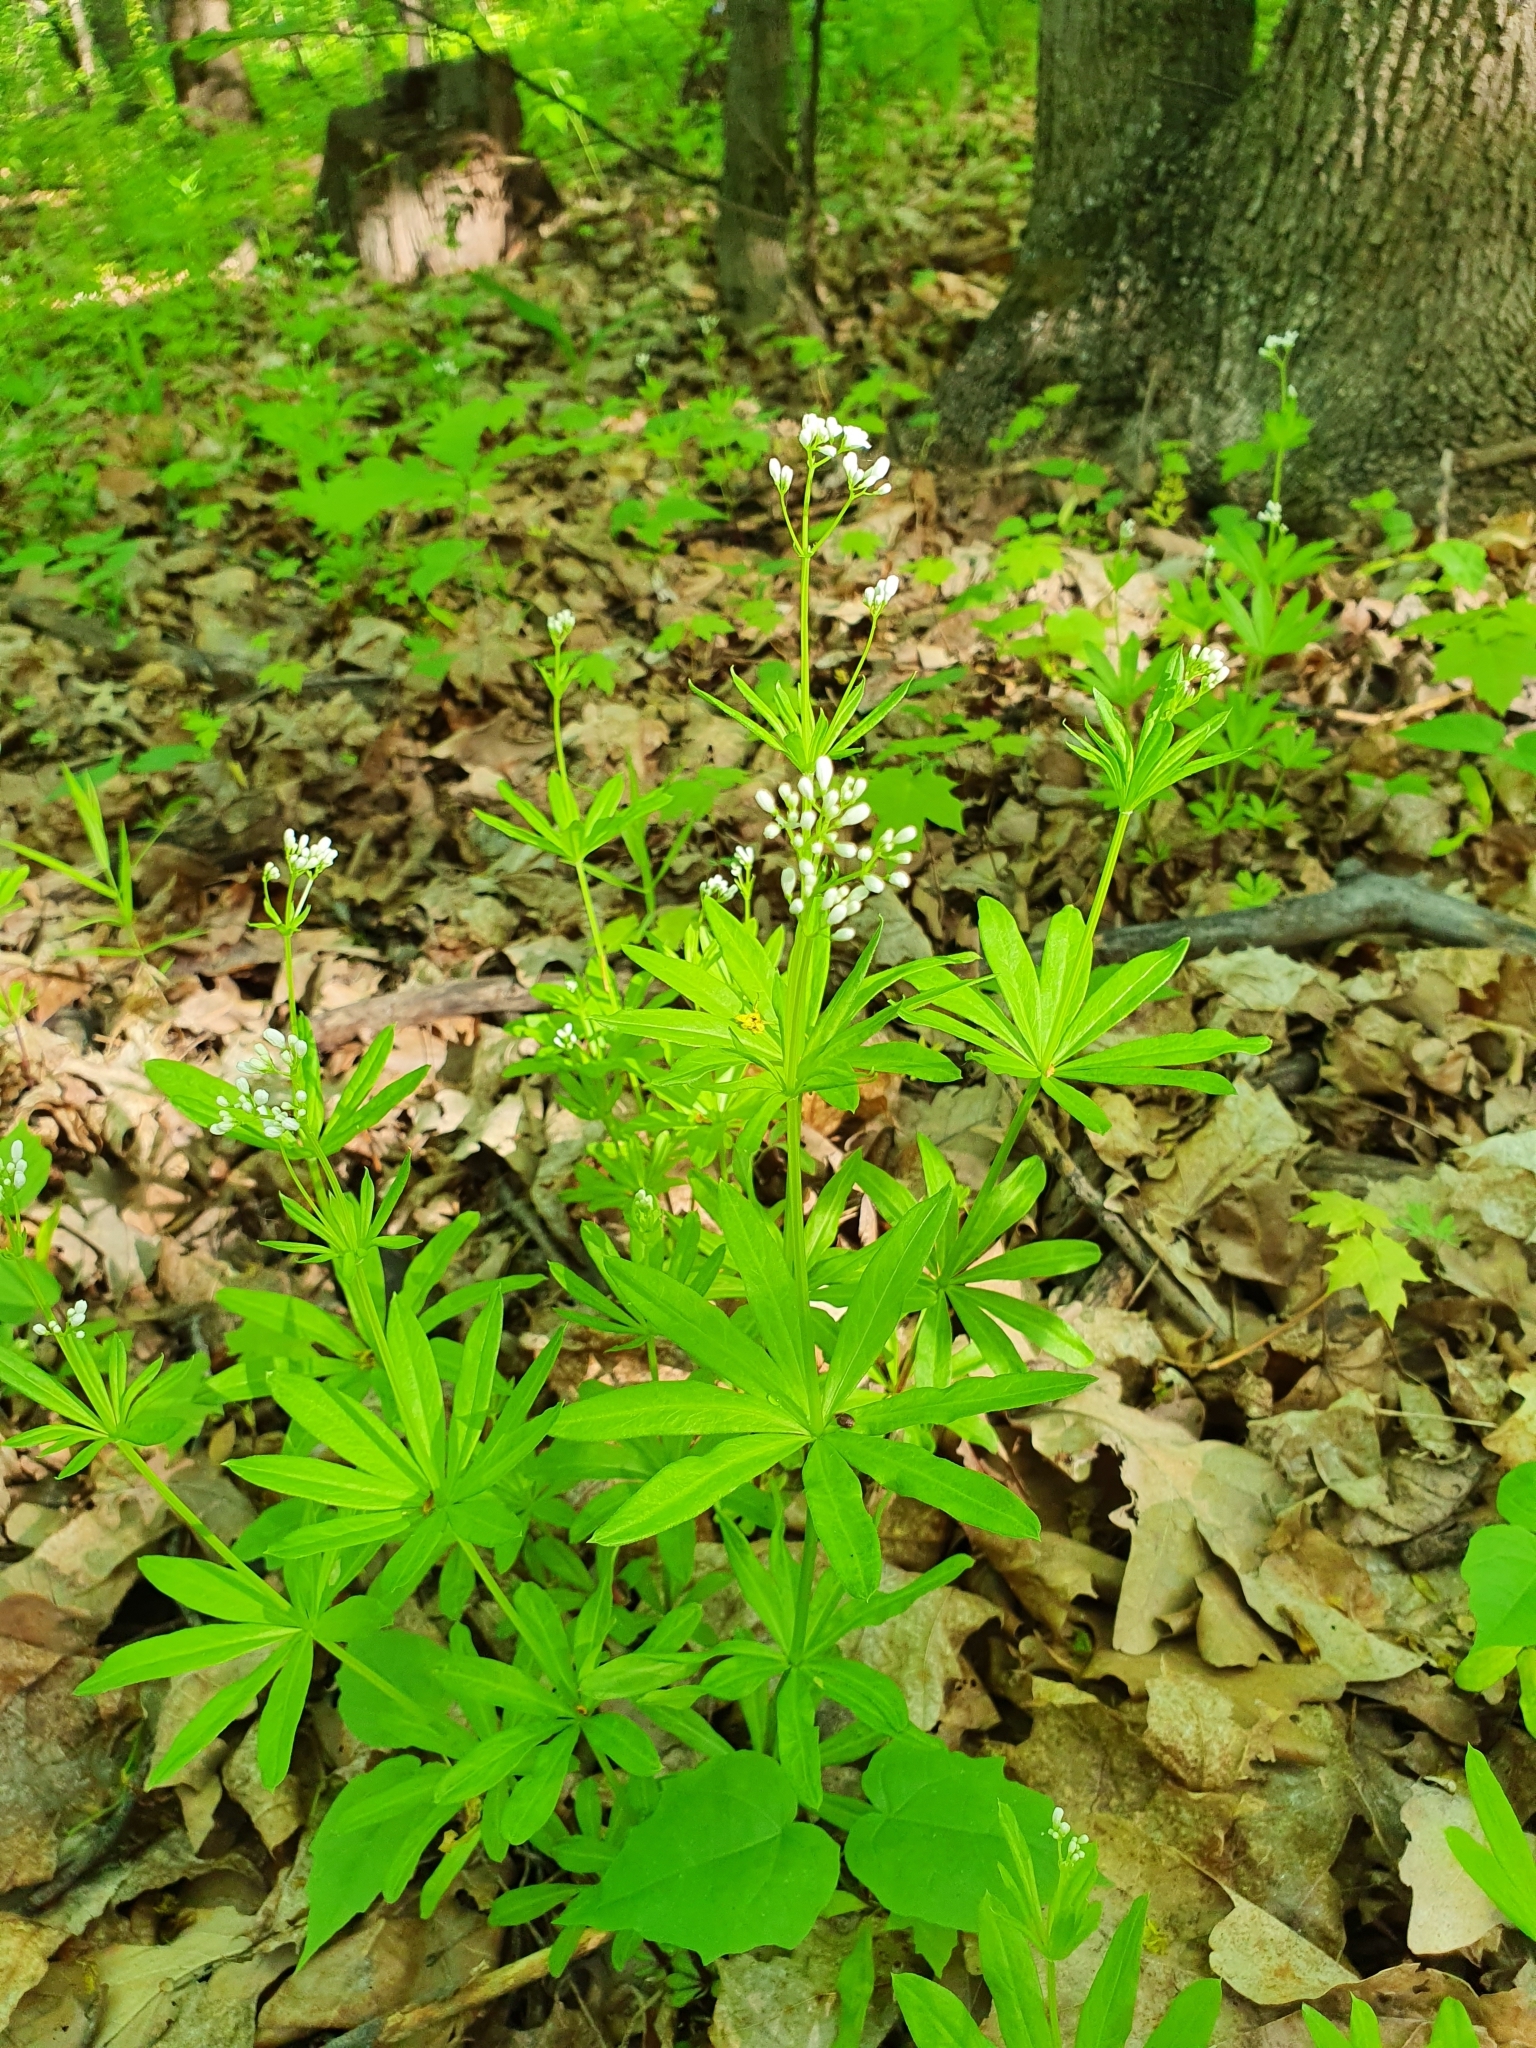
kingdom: Plantae
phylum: Tracheophyta
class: Magnoliopsida
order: Gentianales
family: Rubiaceae
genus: Galium
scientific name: Galium odoratum
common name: Sweet woodruff
